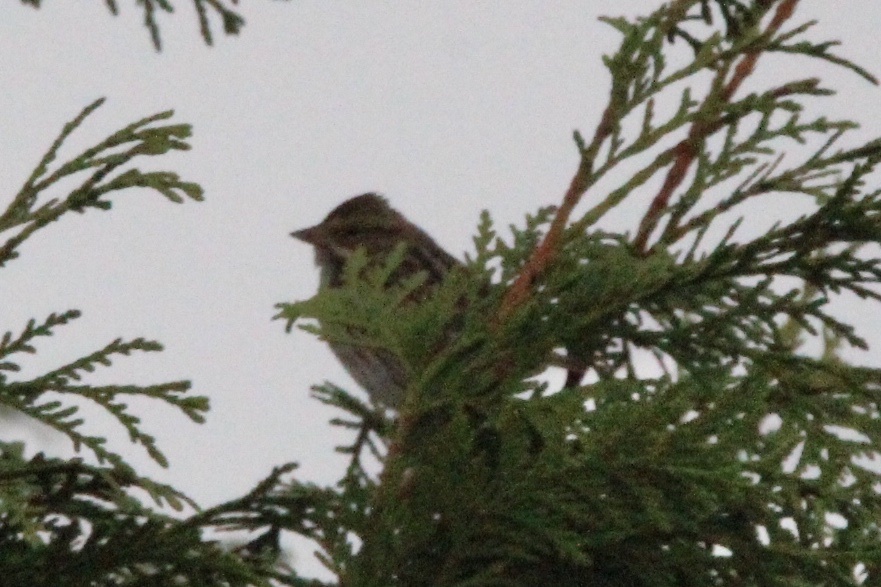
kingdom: Animalia
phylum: Chordata
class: Aves
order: Passeriformes
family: Passerellidae
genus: Passerculus
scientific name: Passerculus sandwichensis
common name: Savannah sparrow
